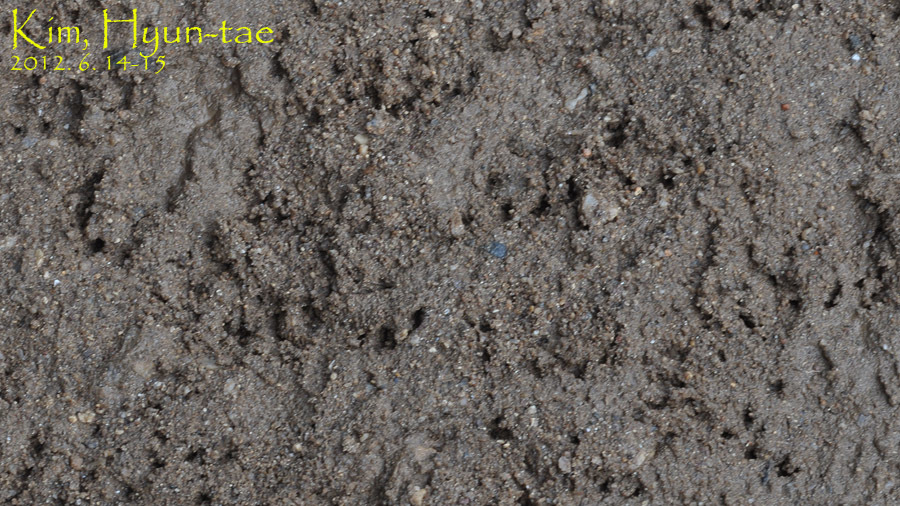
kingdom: Animalia
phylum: Chordata
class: Testudines
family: Geoemydidae
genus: Mauremys
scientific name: Mauremys reevesii
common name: Chinese pond turtle
